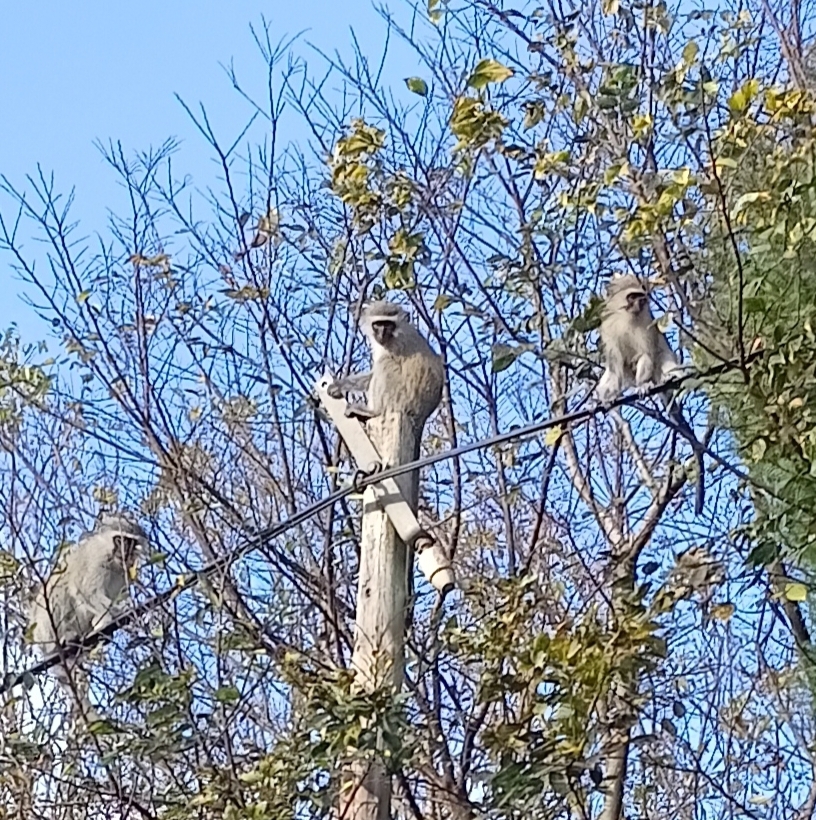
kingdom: Animalia
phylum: Chordata
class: Mammalia
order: Primates
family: Cercopithecidae
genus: Chlorocebus
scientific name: Chlorocebus pygerythrus
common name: Vervet monkey
